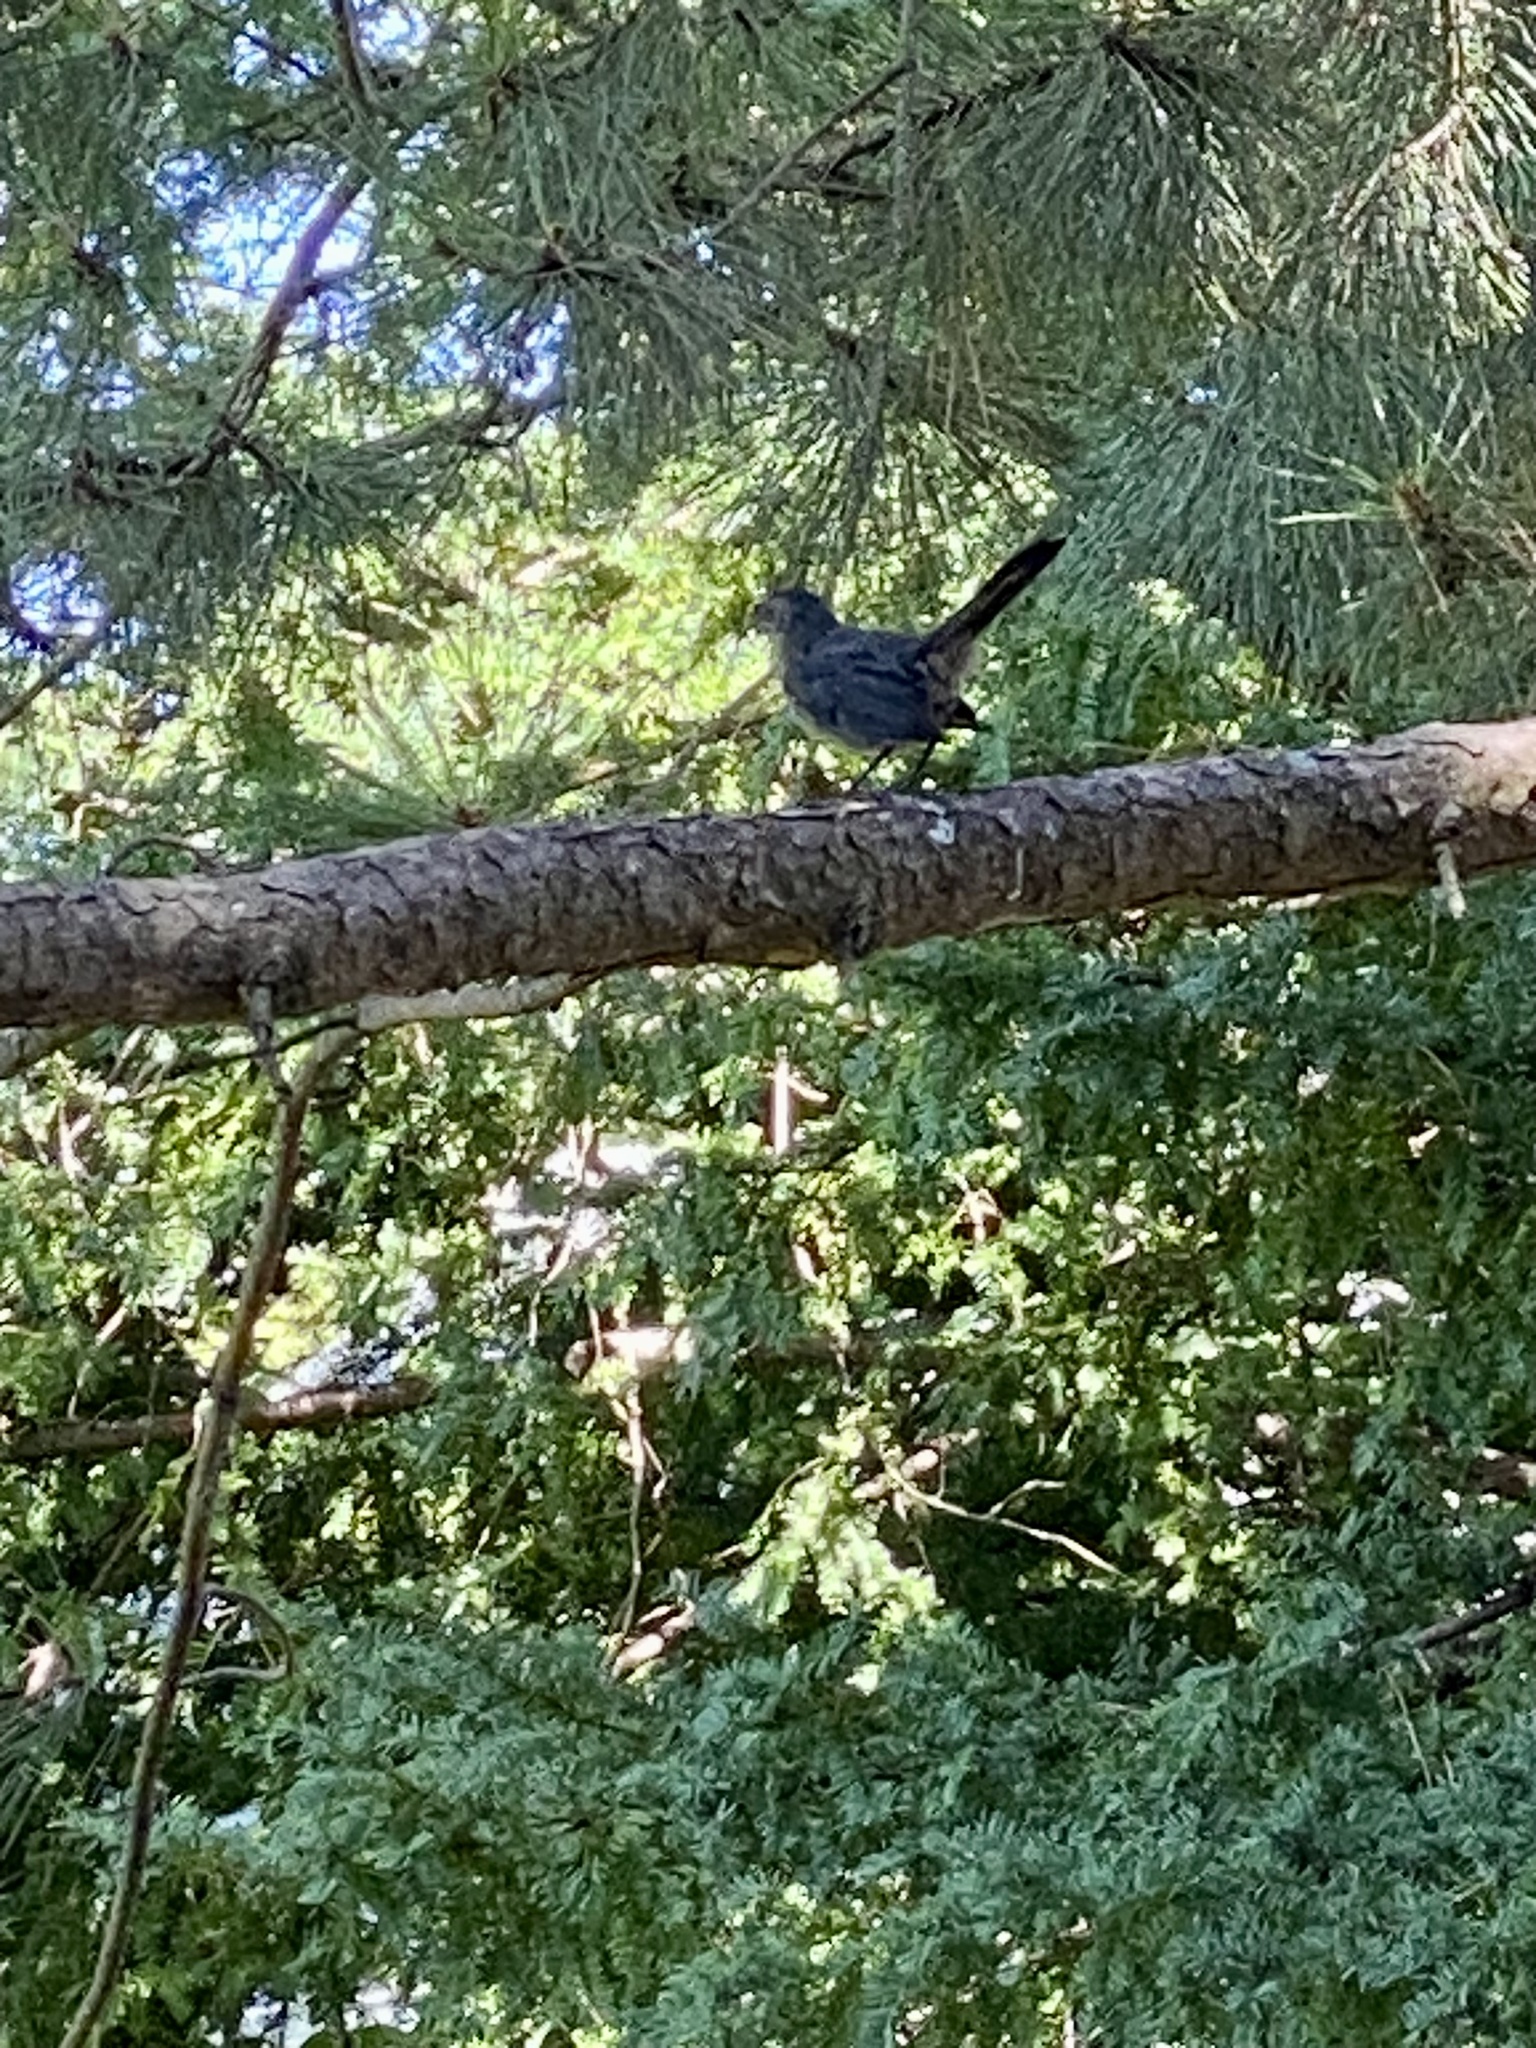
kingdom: Animalia
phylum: Chordata
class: Aves
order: Passeriformes
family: Mimidae
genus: Dumetella
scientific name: Dumetella carolinensis
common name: Gray catbird
